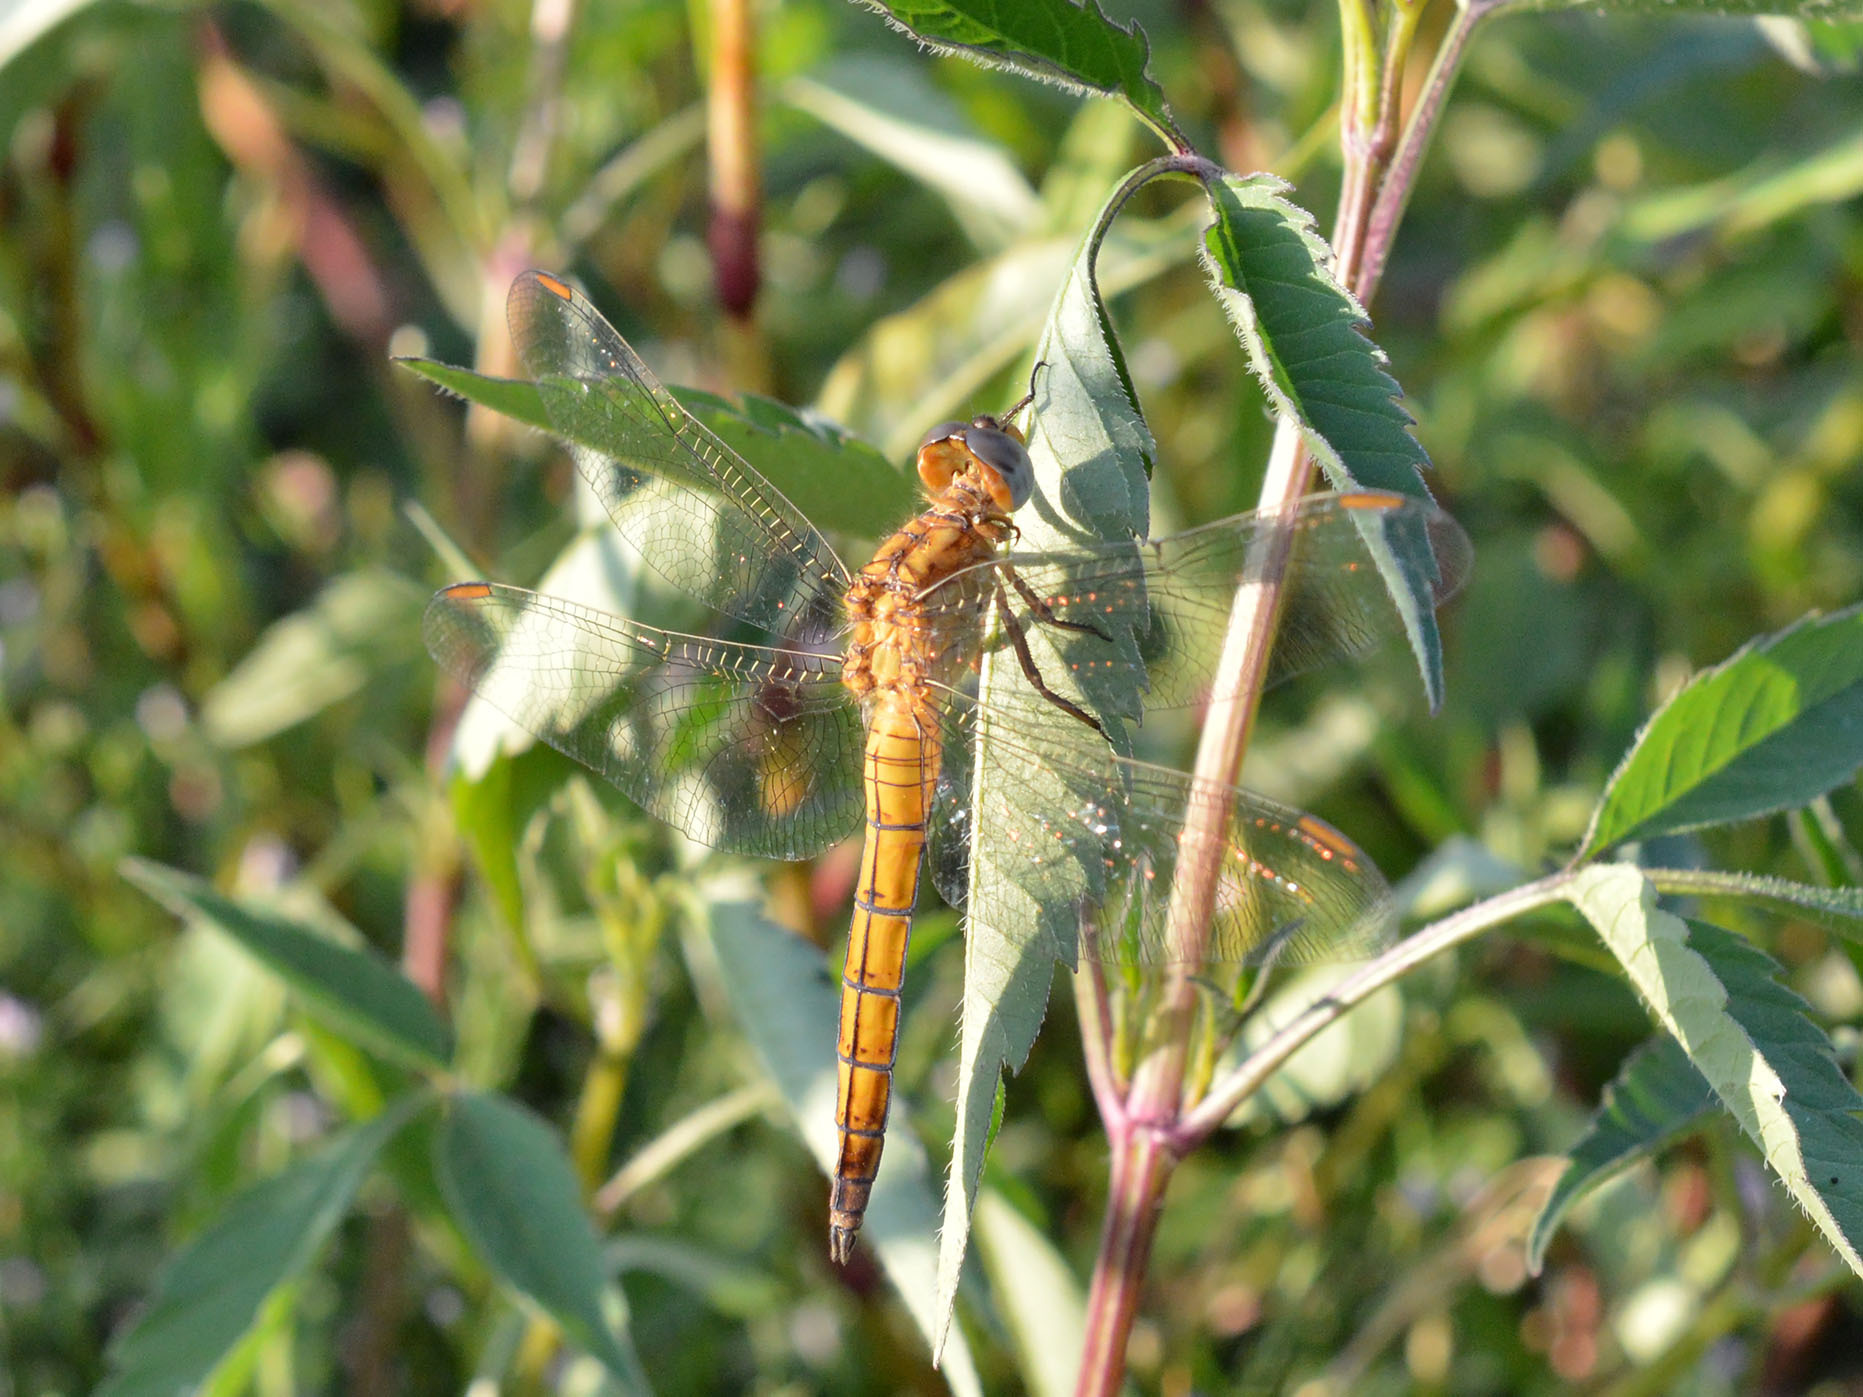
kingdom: Animalia
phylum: Arthropoda
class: Insecta
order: Odonata
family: Libellulidae
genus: Orthetrum
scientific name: Orthetrum coerulescens
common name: Keeled skimmer
